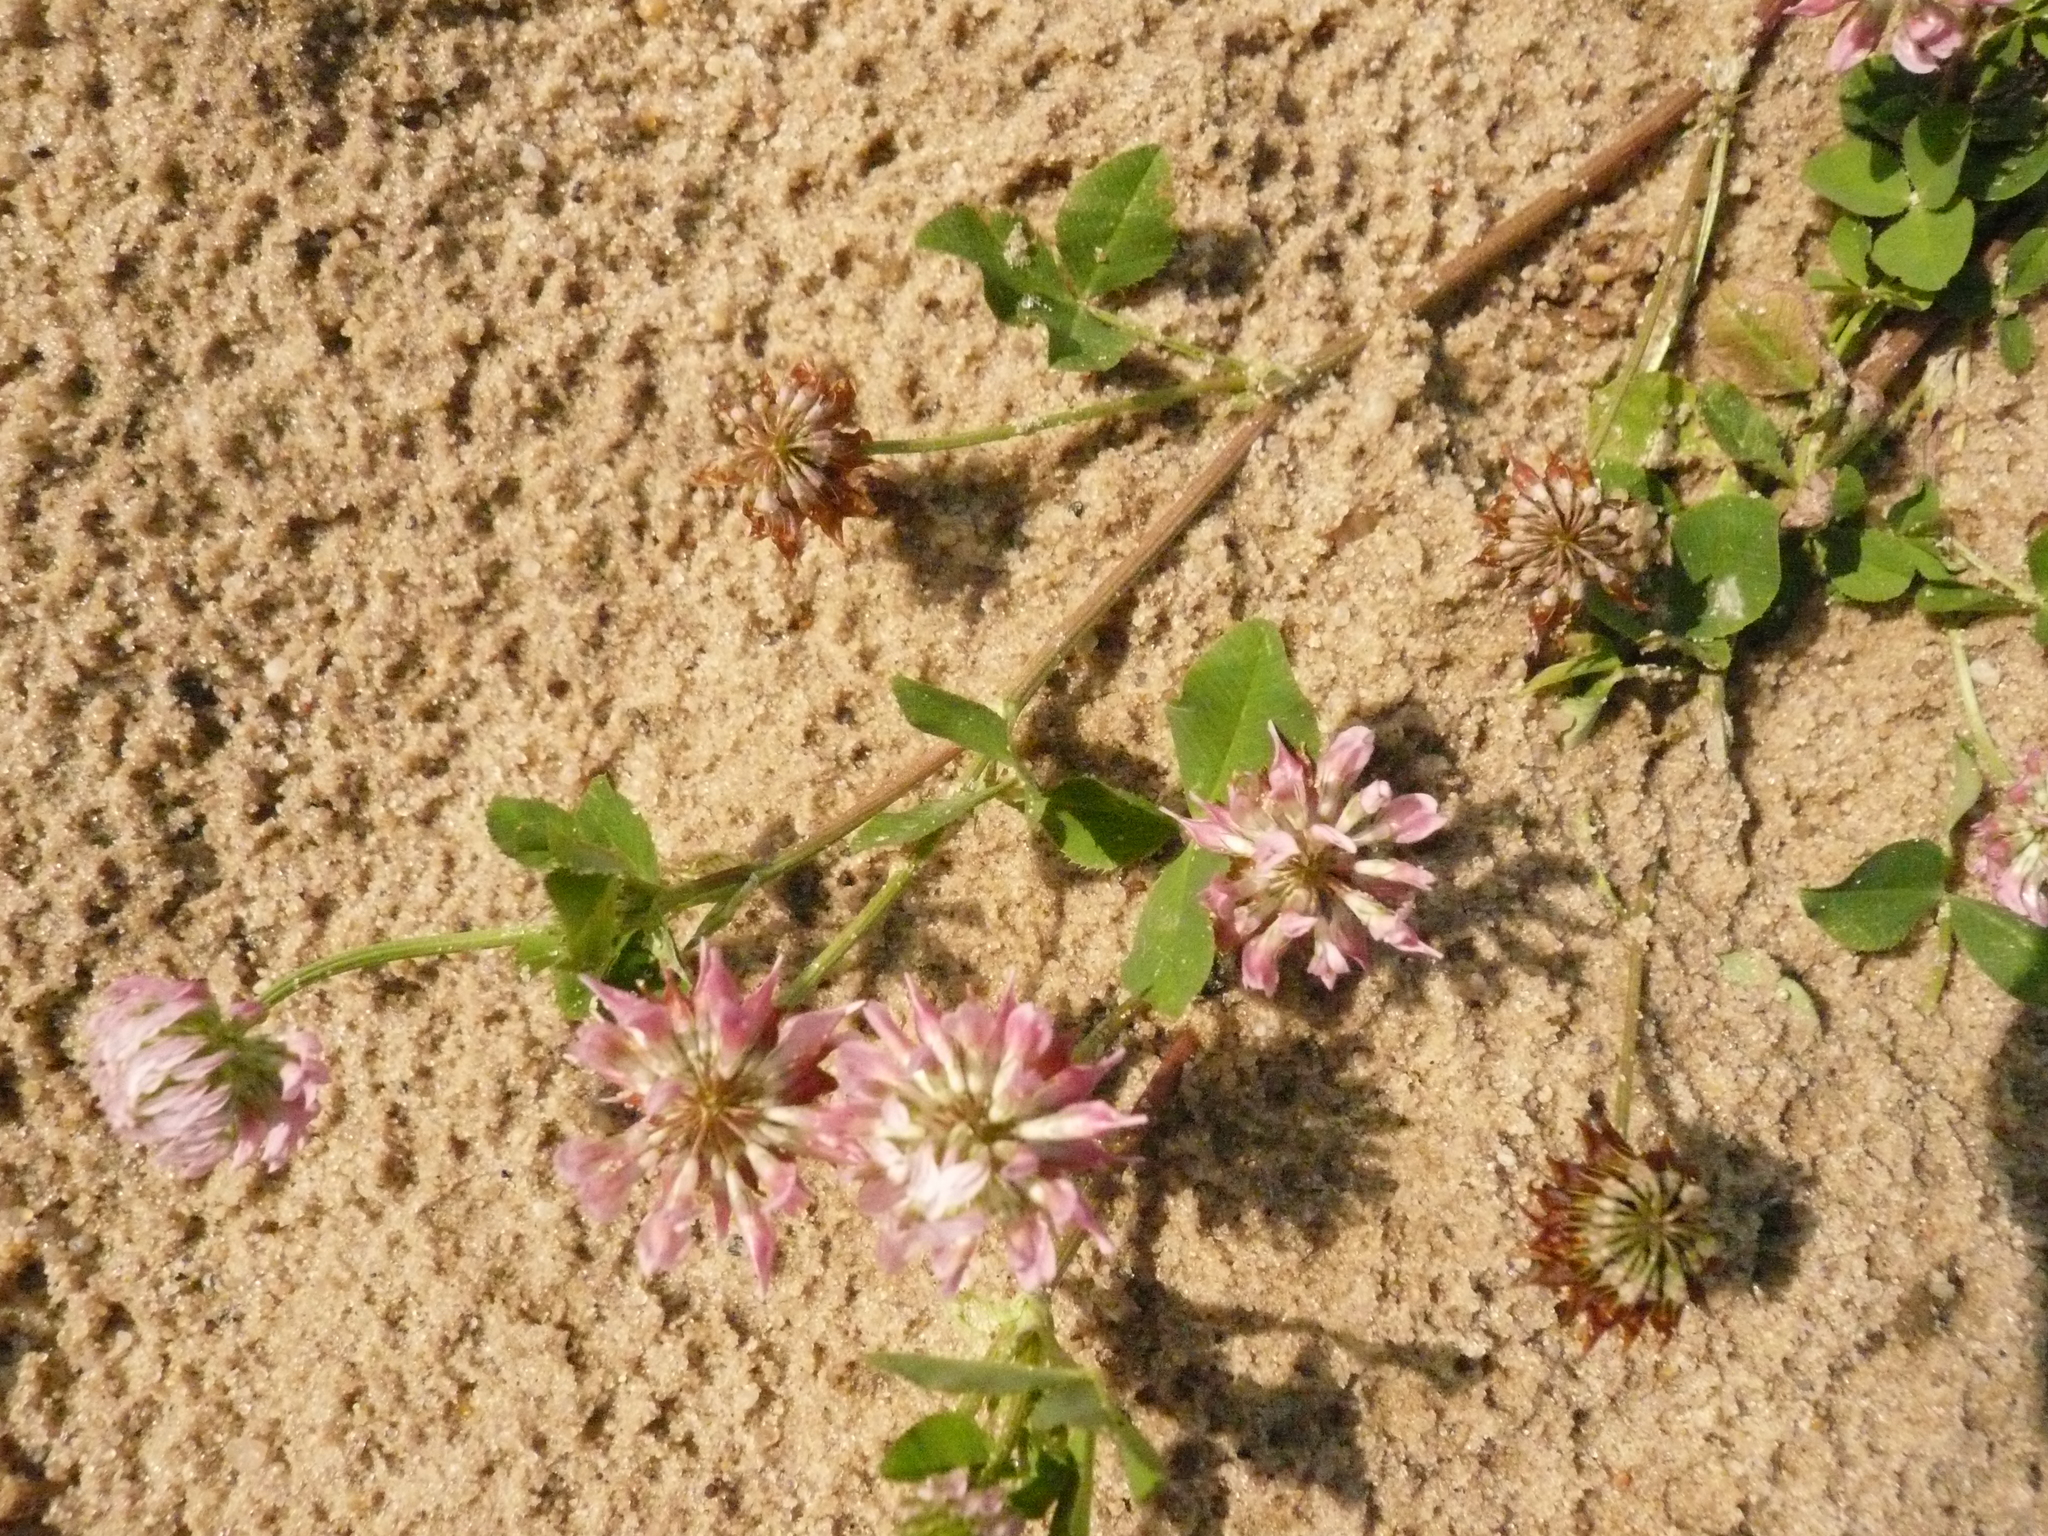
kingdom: Plantae
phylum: Tracheophyta
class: Magnoliopsida
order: Fabales
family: Fabaceae
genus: Trifolium
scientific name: Trifolium hybridum
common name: Alsike clover
